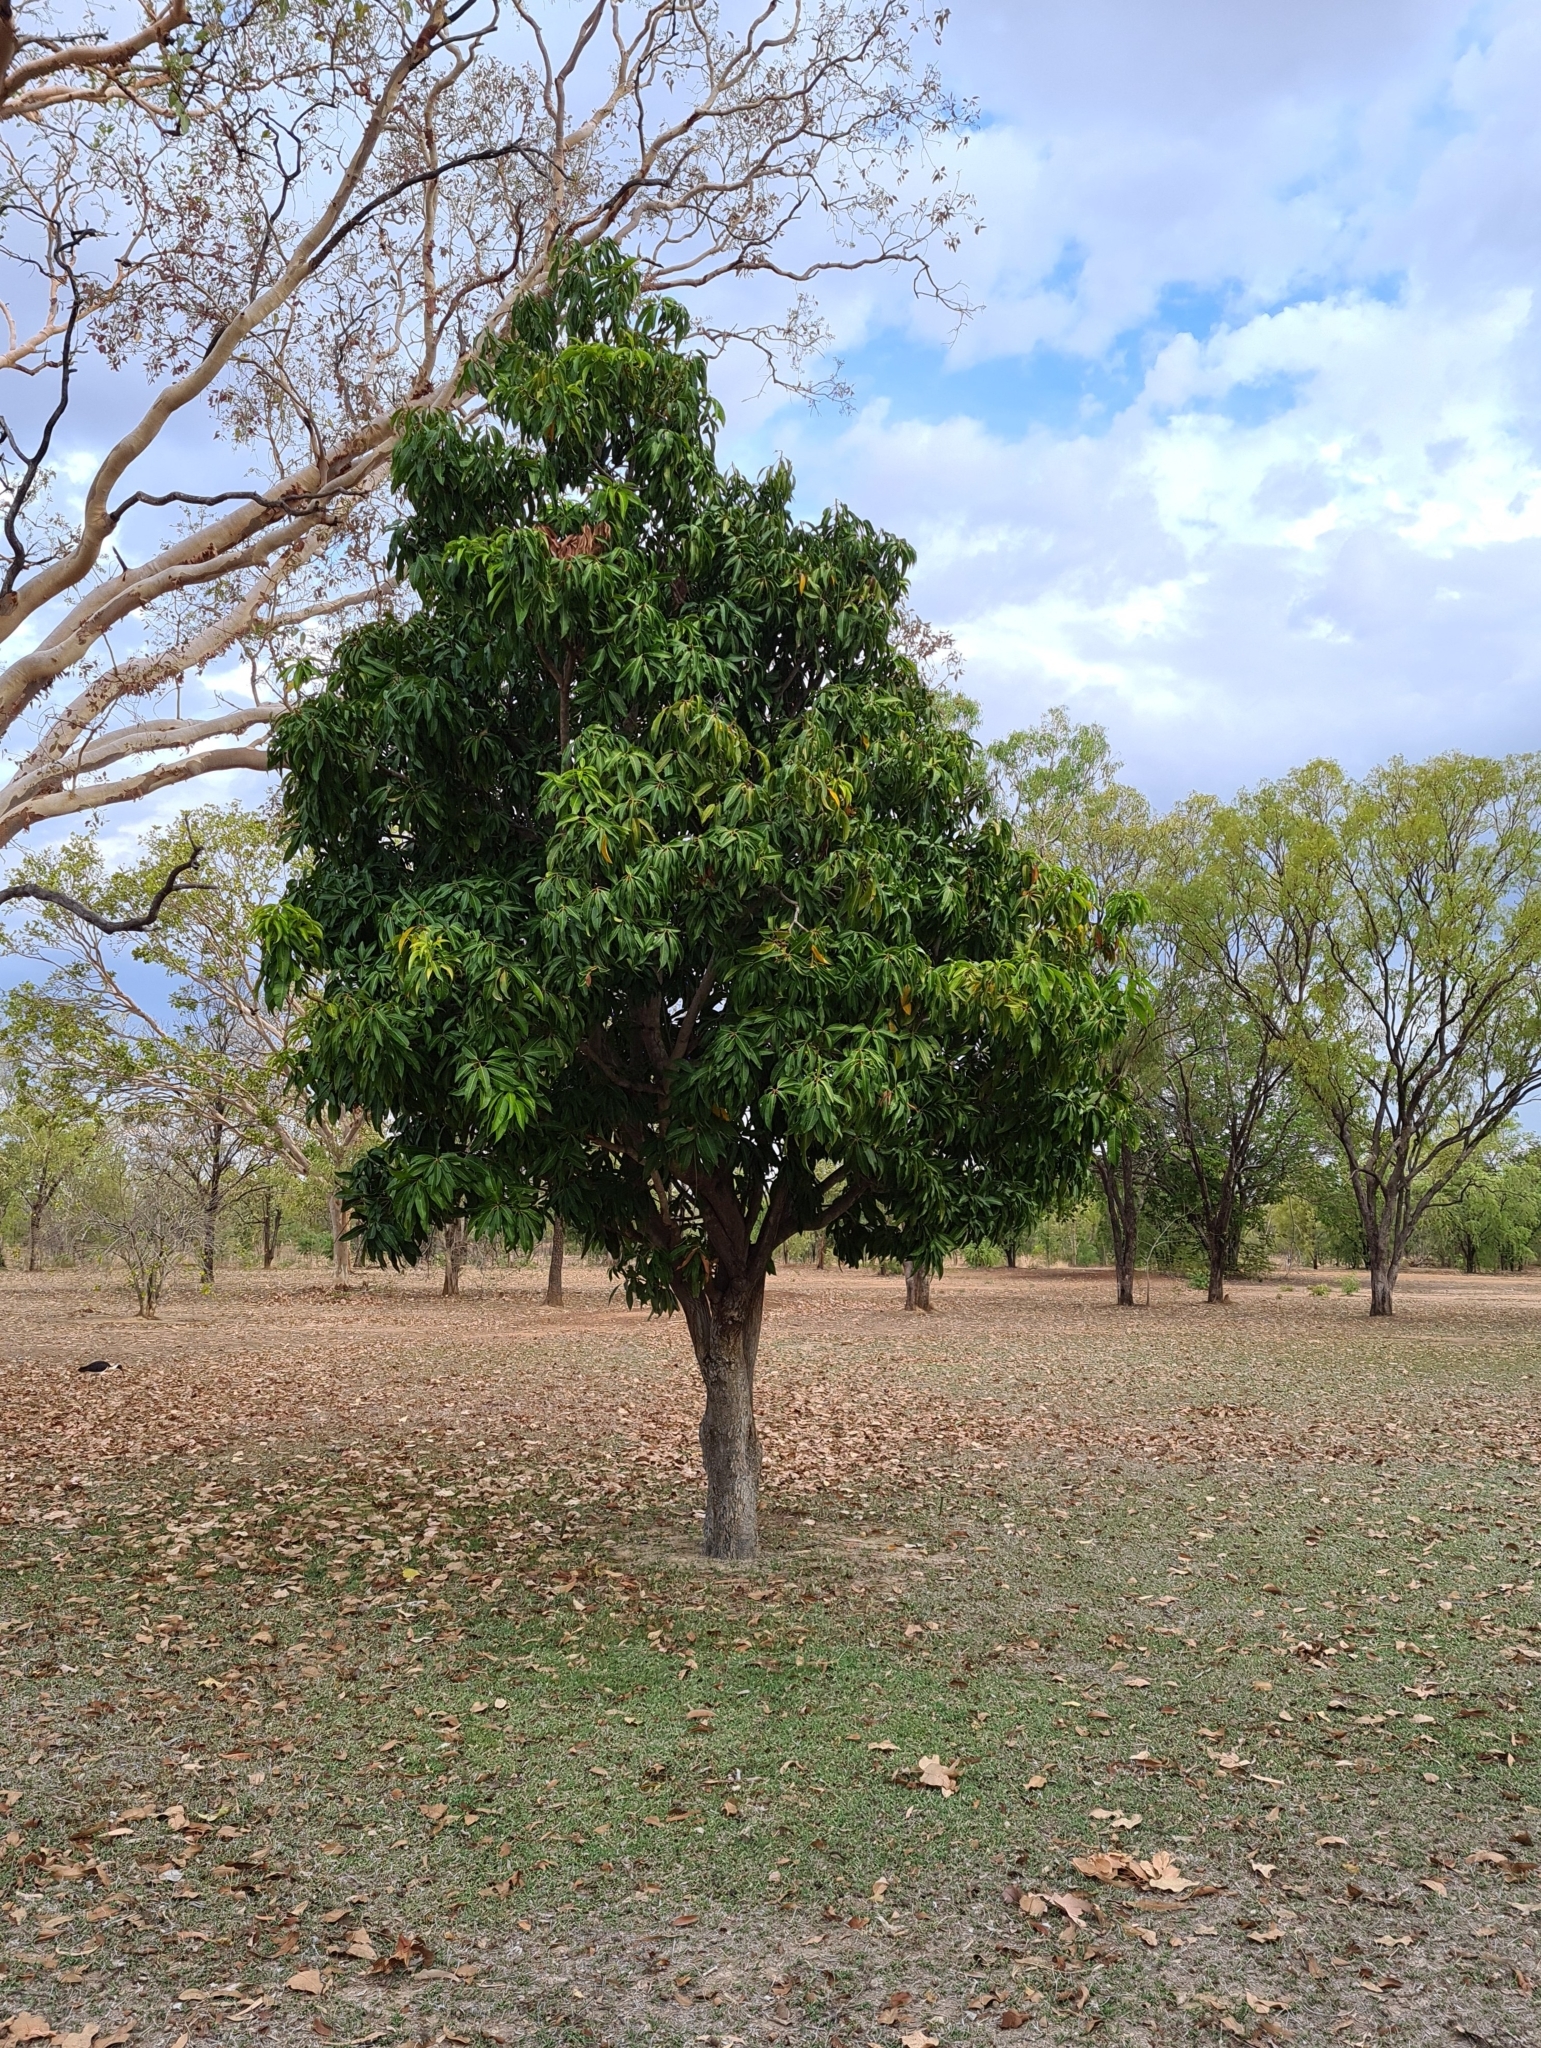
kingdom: Plantae
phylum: Tracheophyta
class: Magnoliopsida
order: Sapindales
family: Anacardiaceae
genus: Mangifera
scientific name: Mangifera indica
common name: Mango
